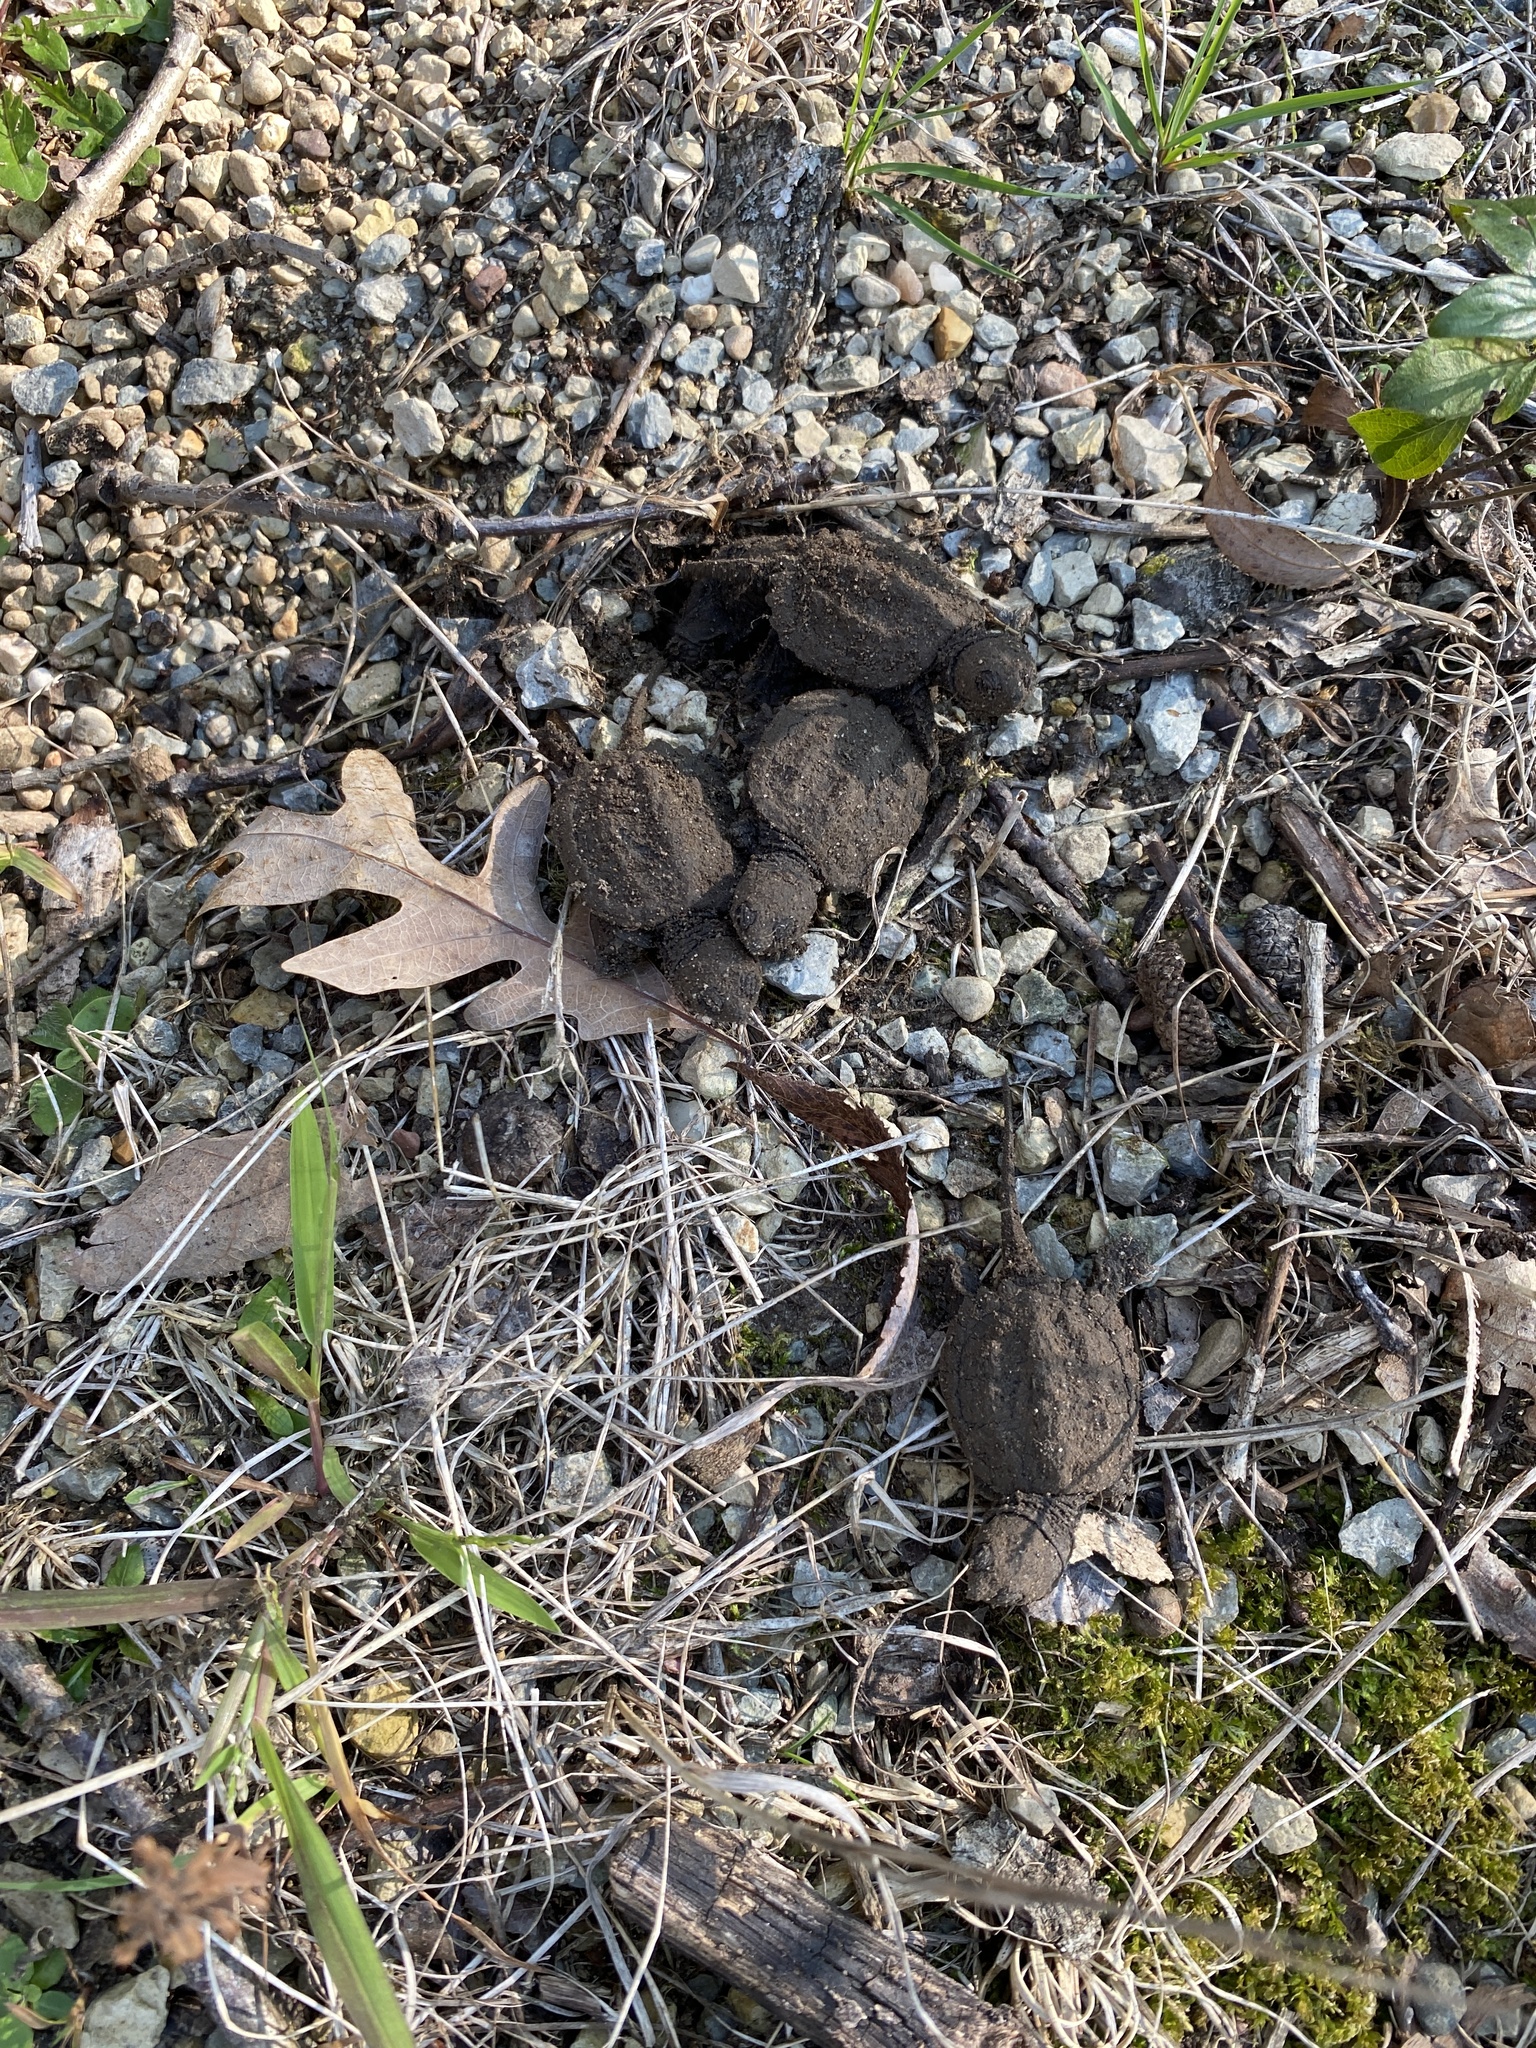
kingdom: Animalia
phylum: Chordata
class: Testudines
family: Chelydridae
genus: Chelydra
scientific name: Chelydra serpentina
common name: Common snapping turtle
